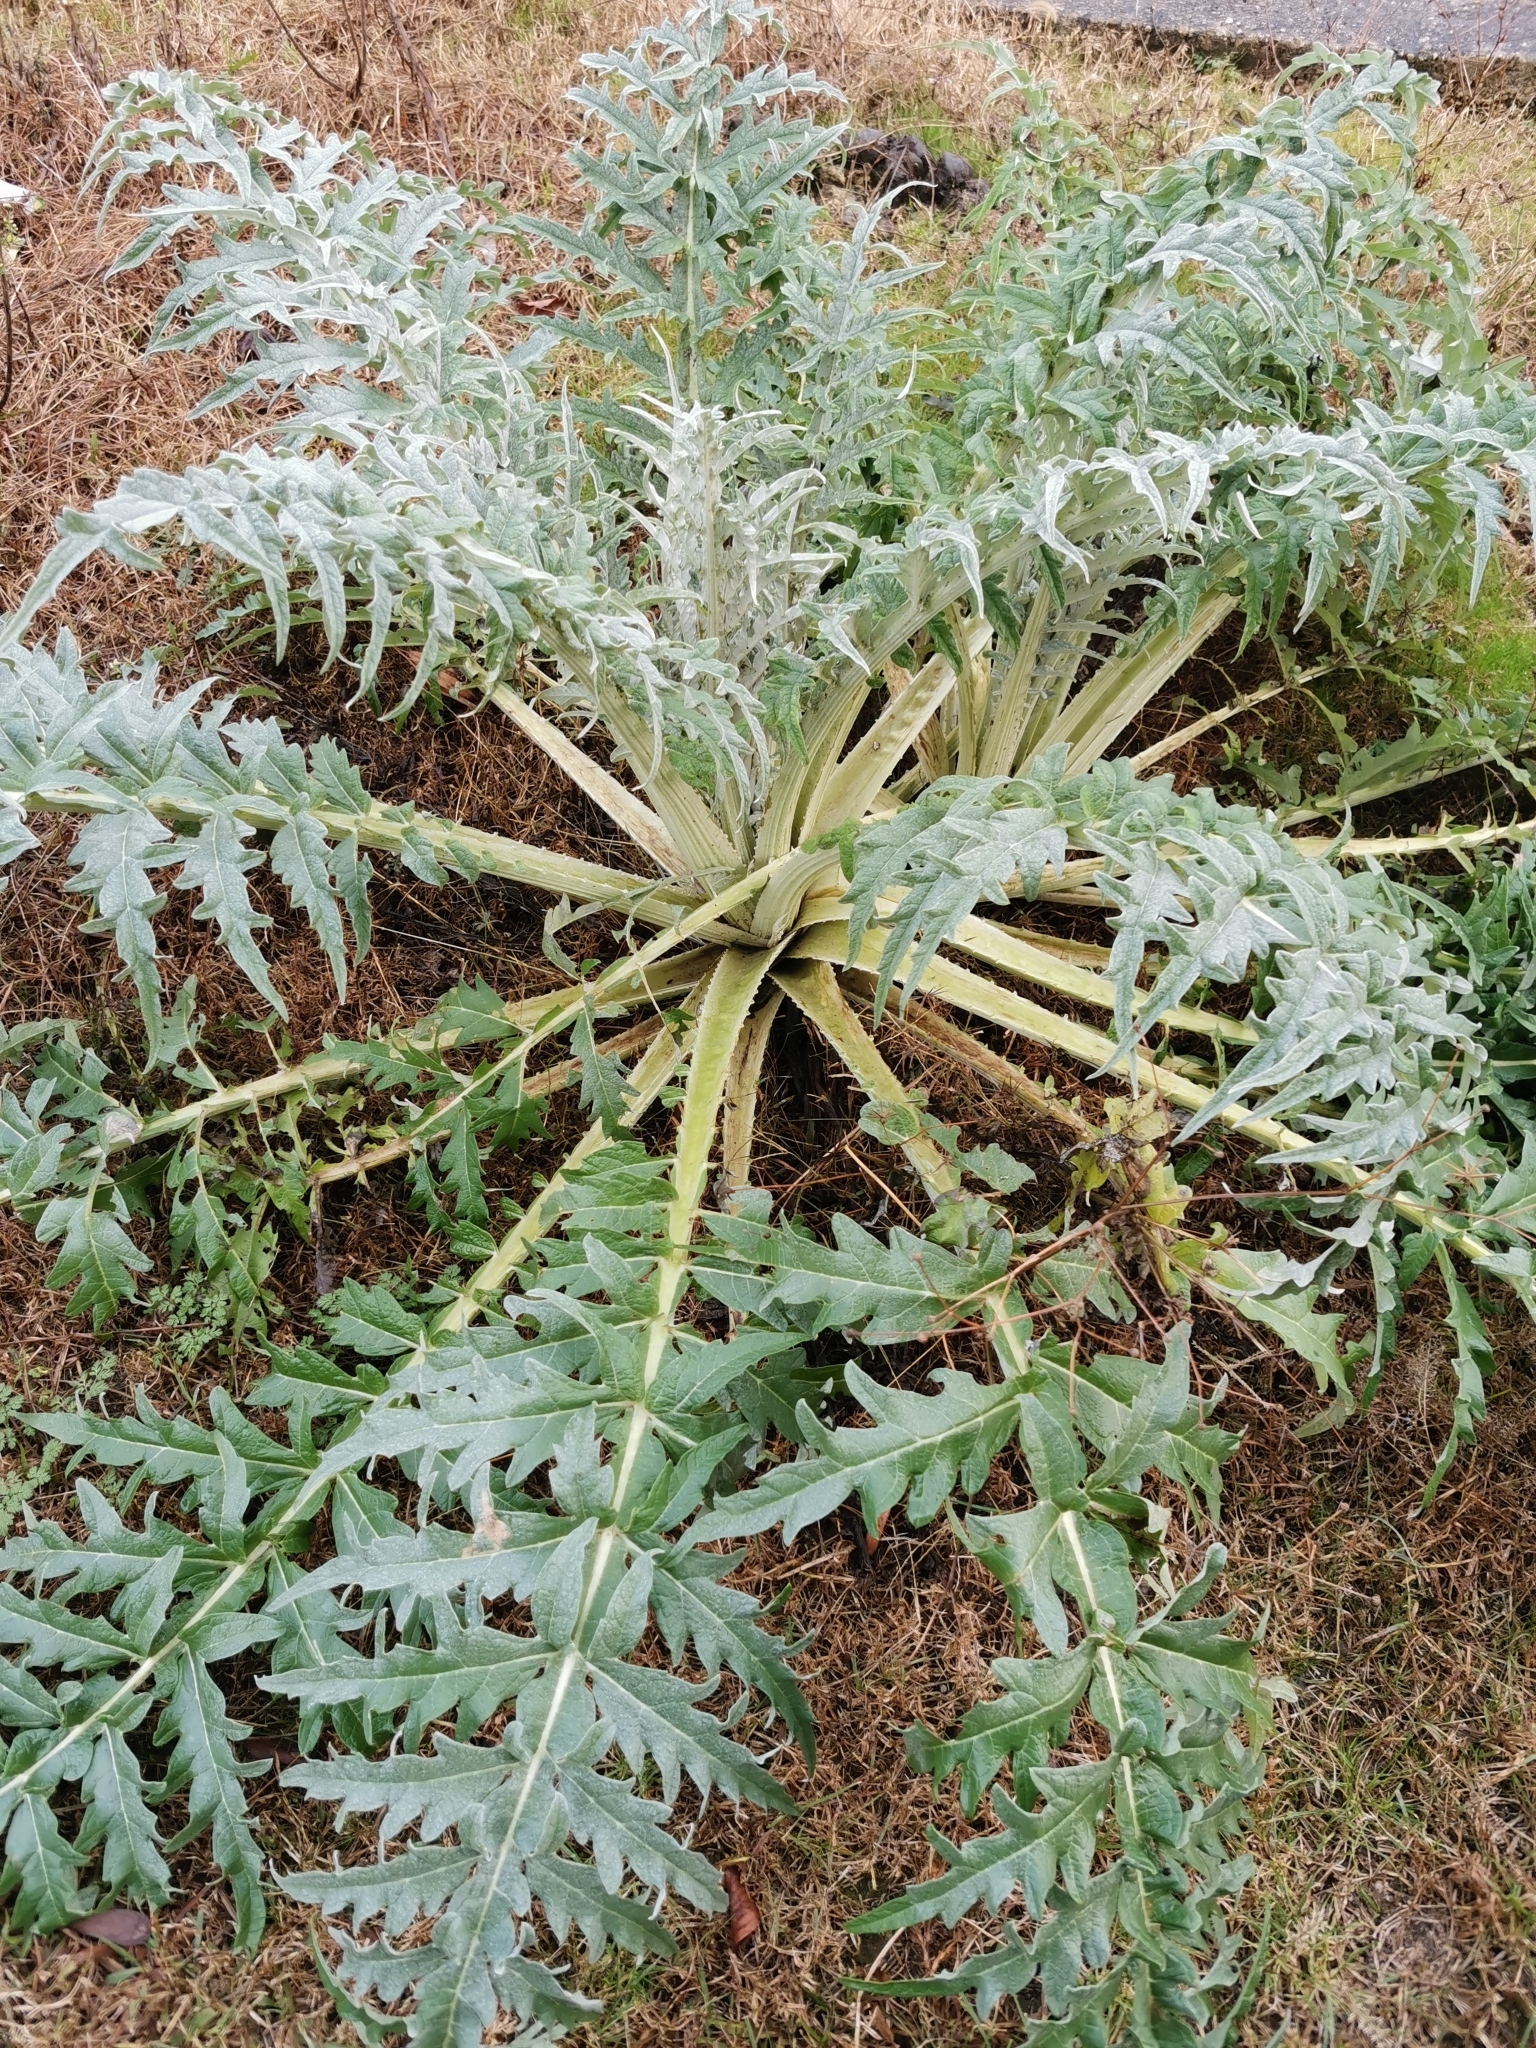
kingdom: Plantae
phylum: Tracheophyta
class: Magnoliopsida
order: Asterales
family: Asteraceae
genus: Cynara
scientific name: Cynara cardunculus
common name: Globe artichoke
